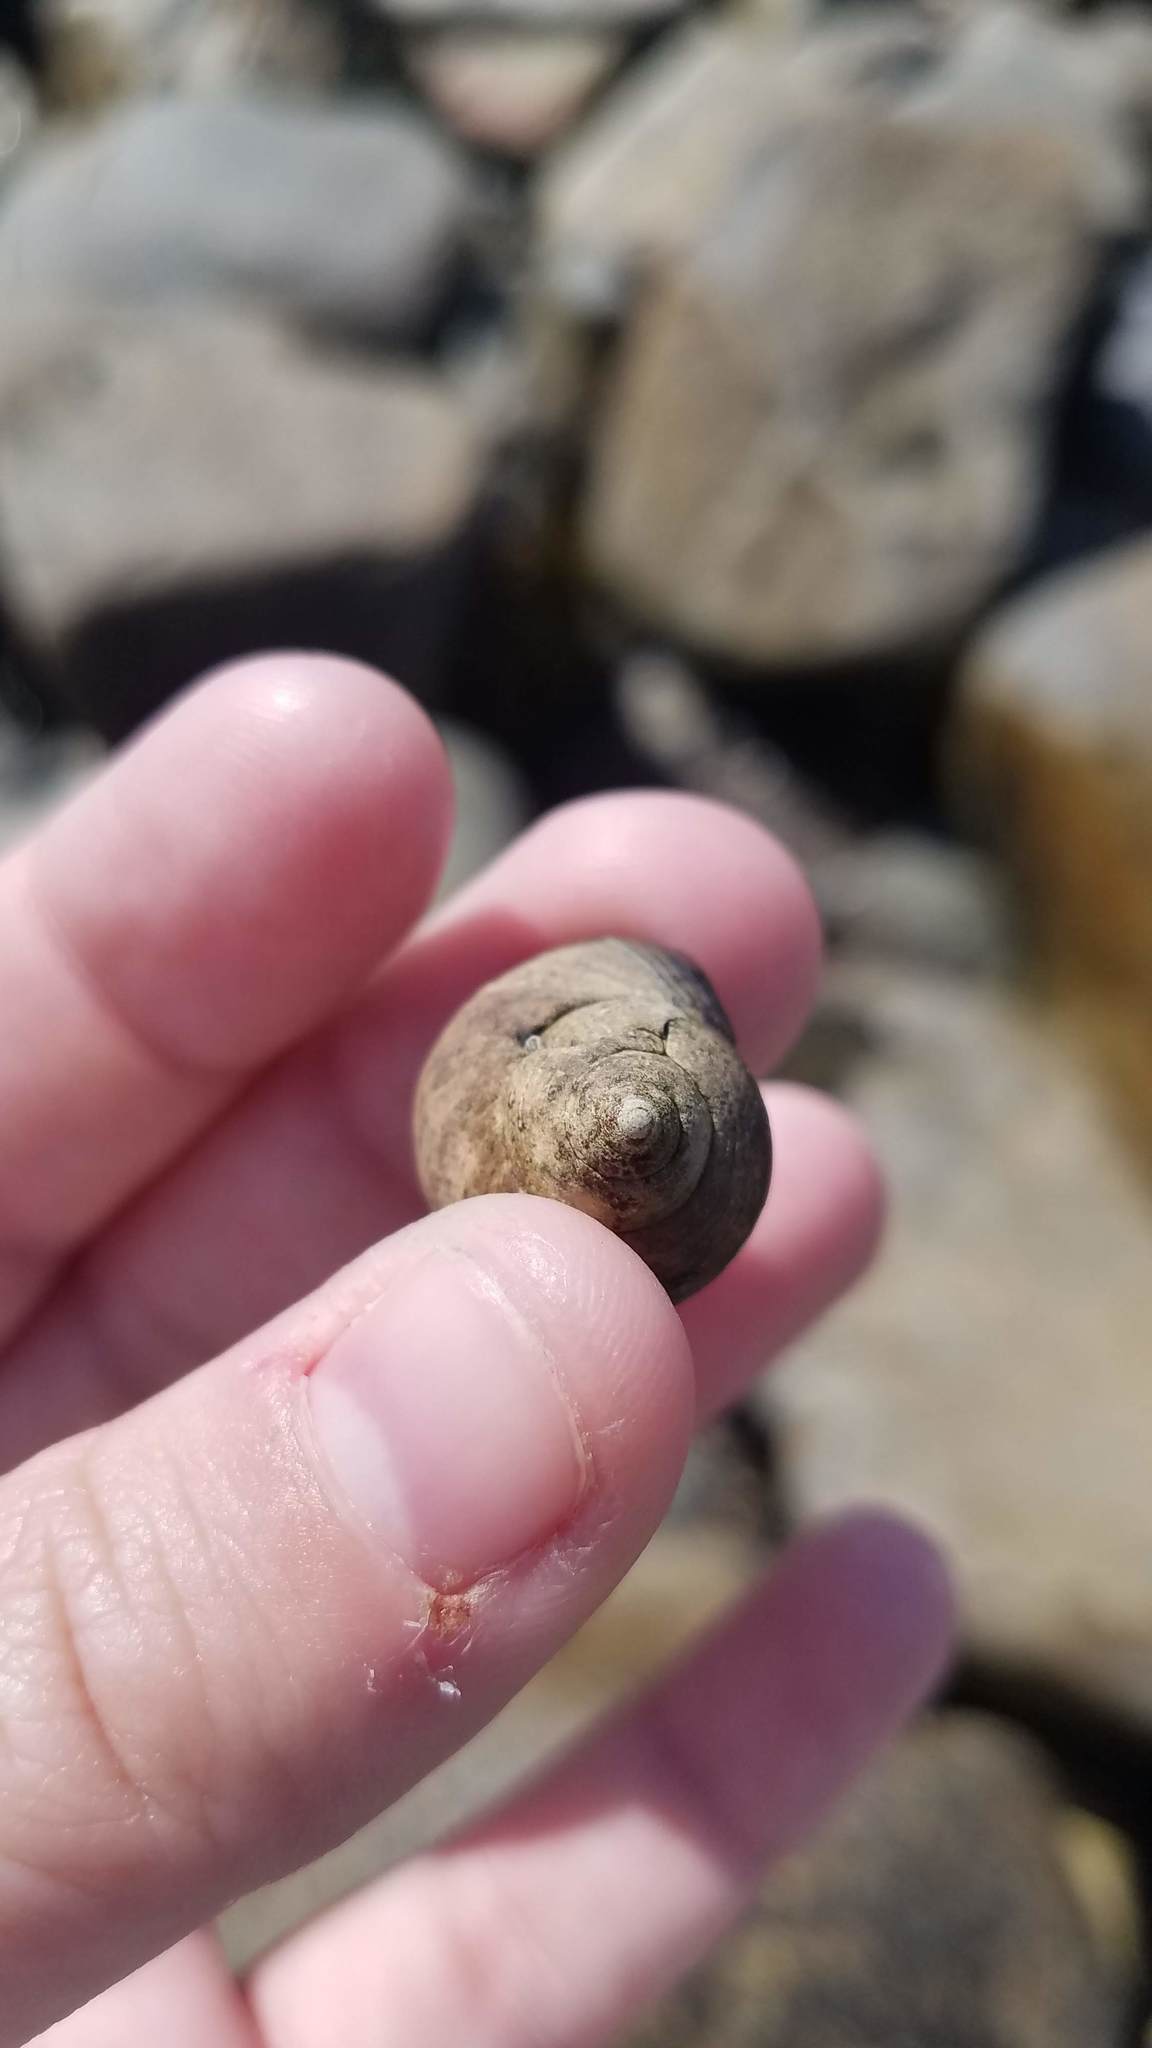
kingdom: Animalia
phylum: Mollusca
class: Gastropoda
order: Littorinimorpha
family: Littorinidae
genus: Littorina
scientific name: Littorina littorea
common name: Common periwinkle
